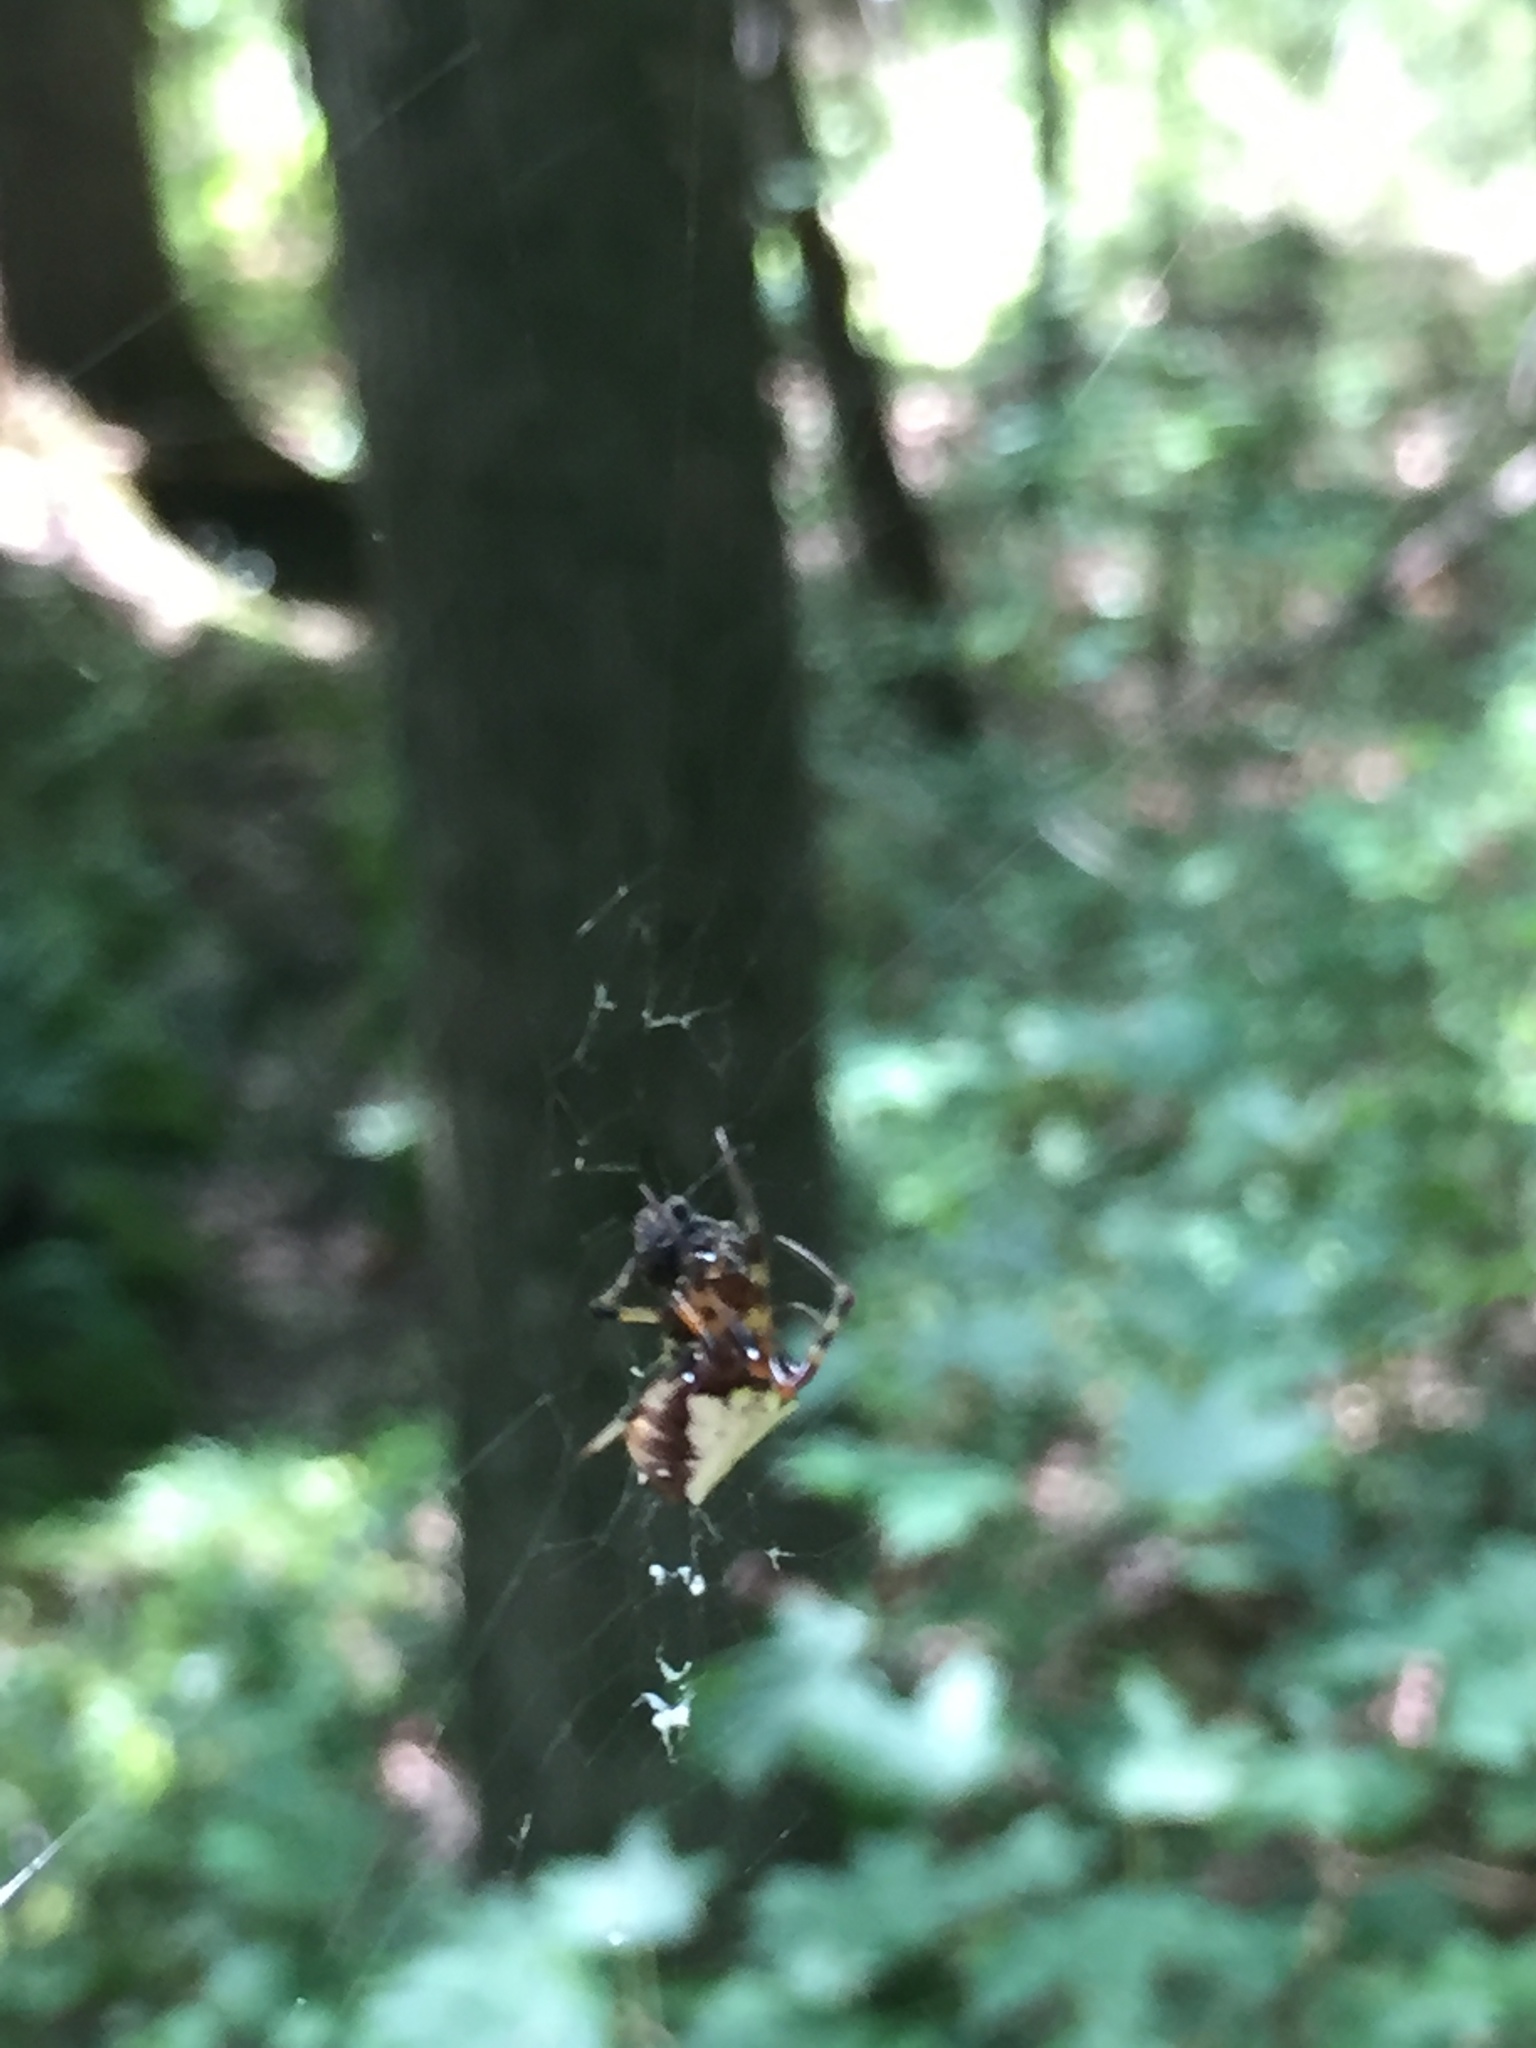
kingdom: Animalia
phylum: Arthropoda
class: Arachnida
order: Araneae
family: Araneidae
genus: Verrucosa
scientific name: Verrucosa arenata
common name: Orb weavers
